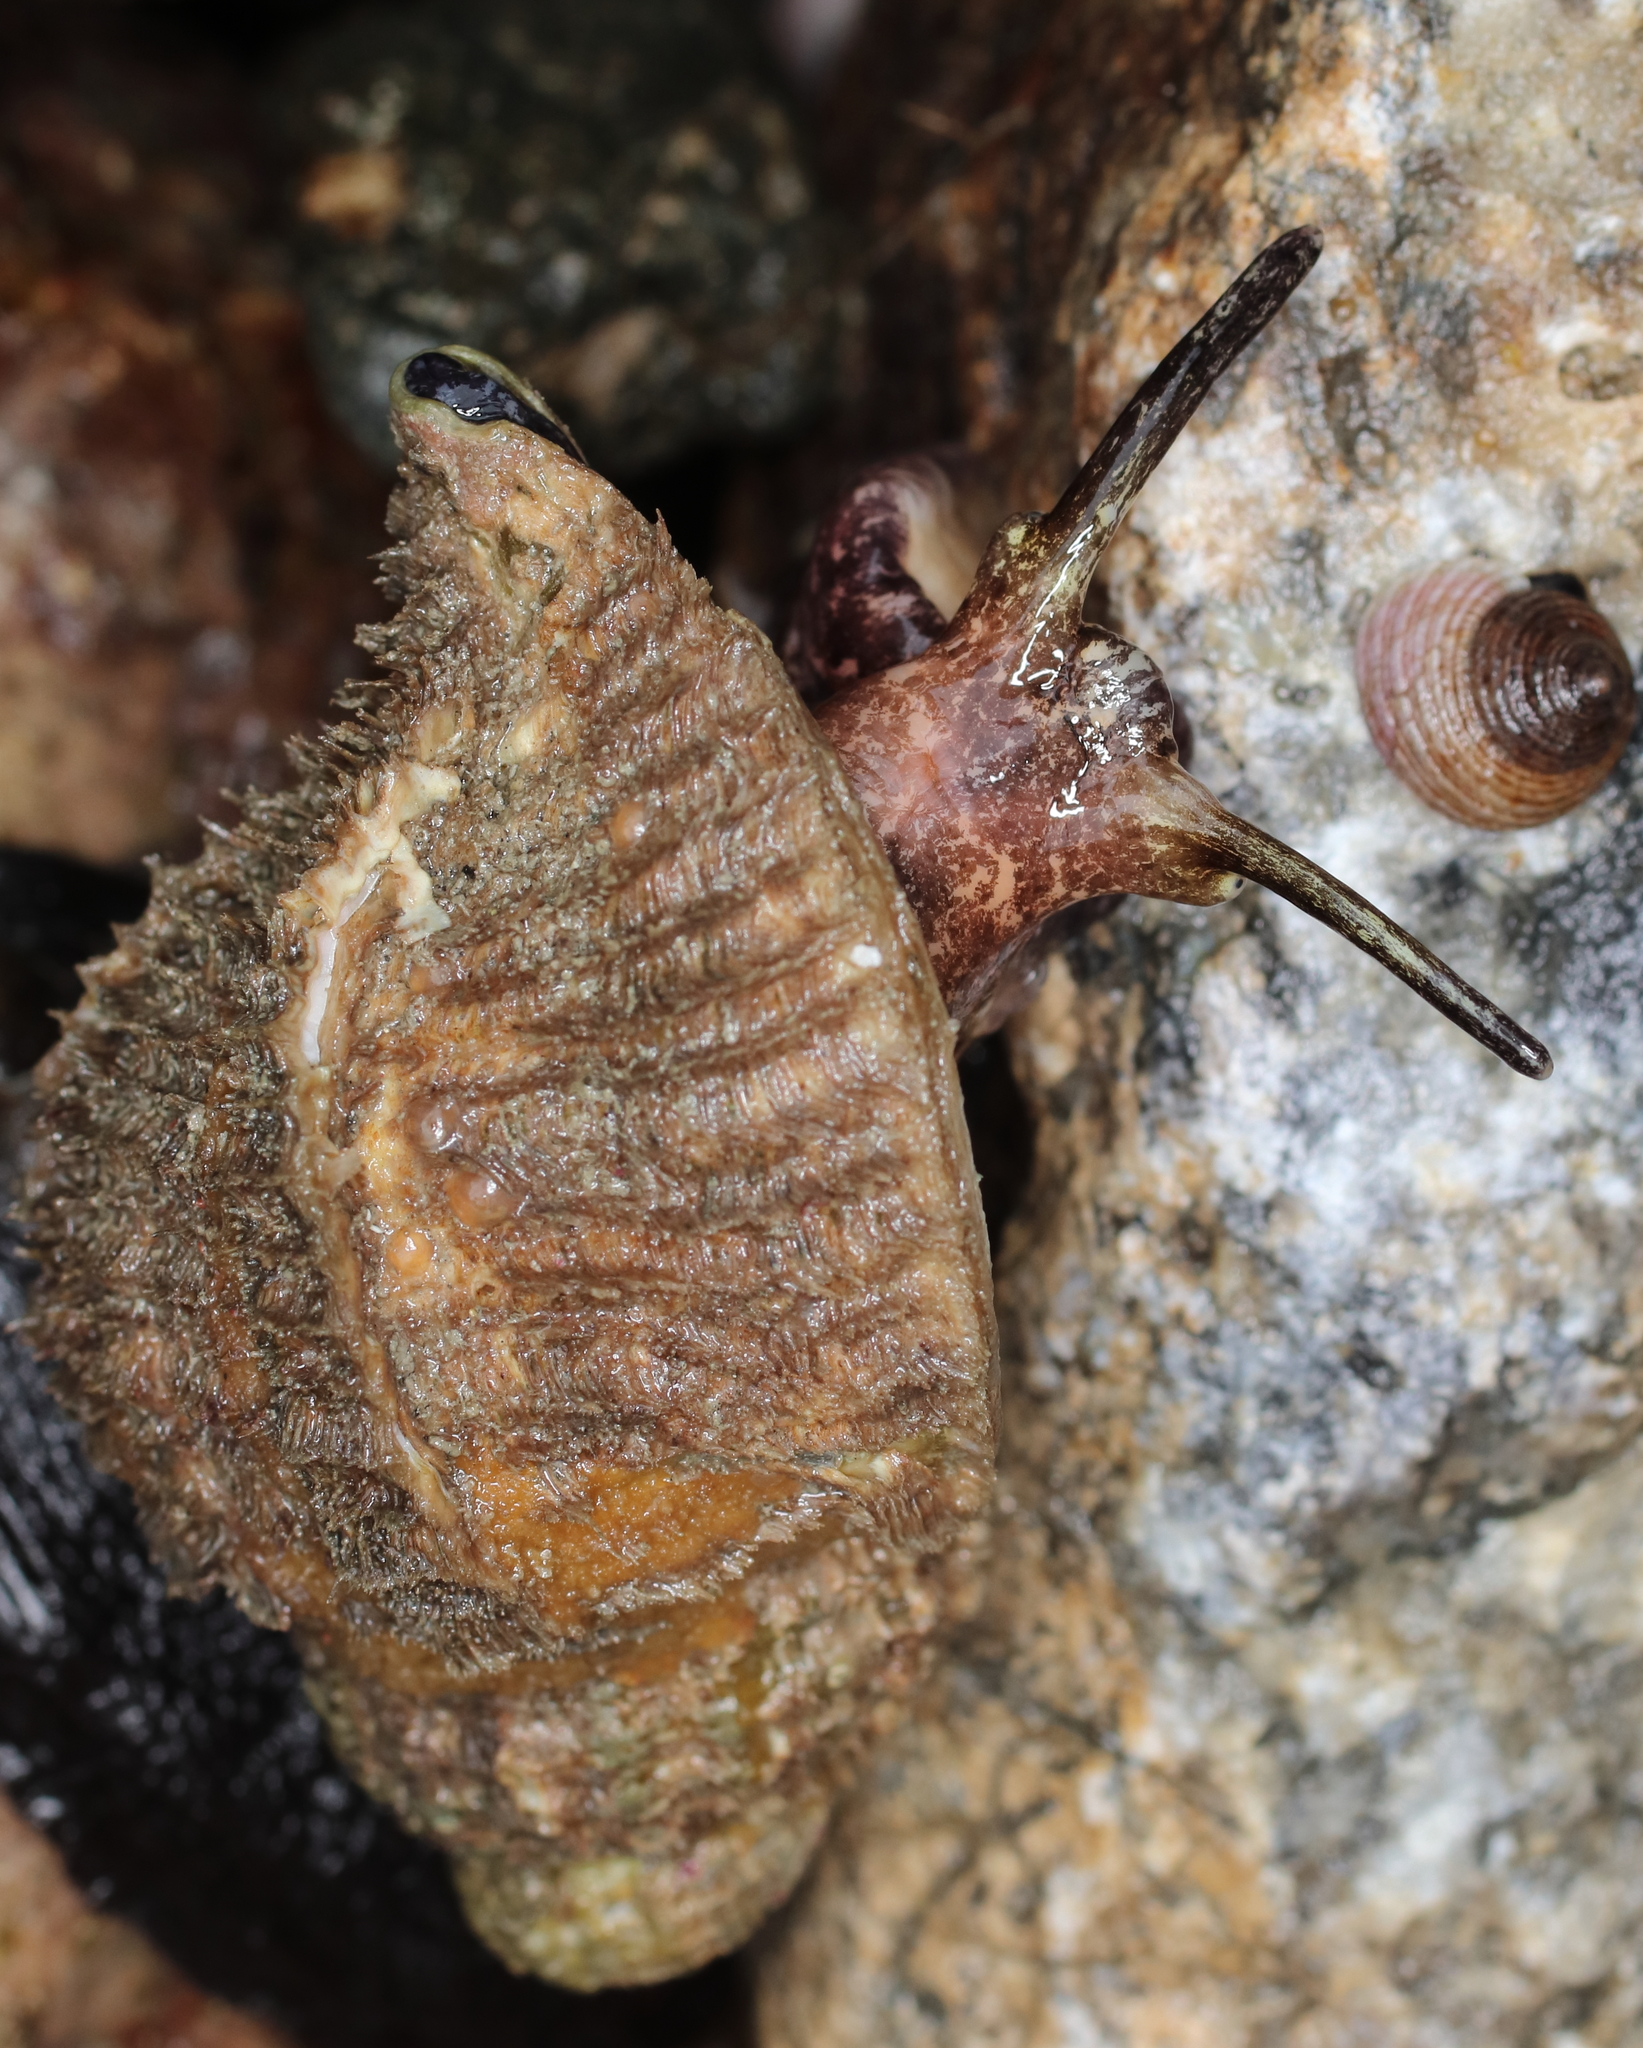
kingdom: Animalia
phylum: Mollusca
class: Gastropoda
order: Littorinimorpha
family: Cymatiidae
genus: Fusitriton
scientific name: Fusitriton oregonensis
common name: Oregon hairy triton
